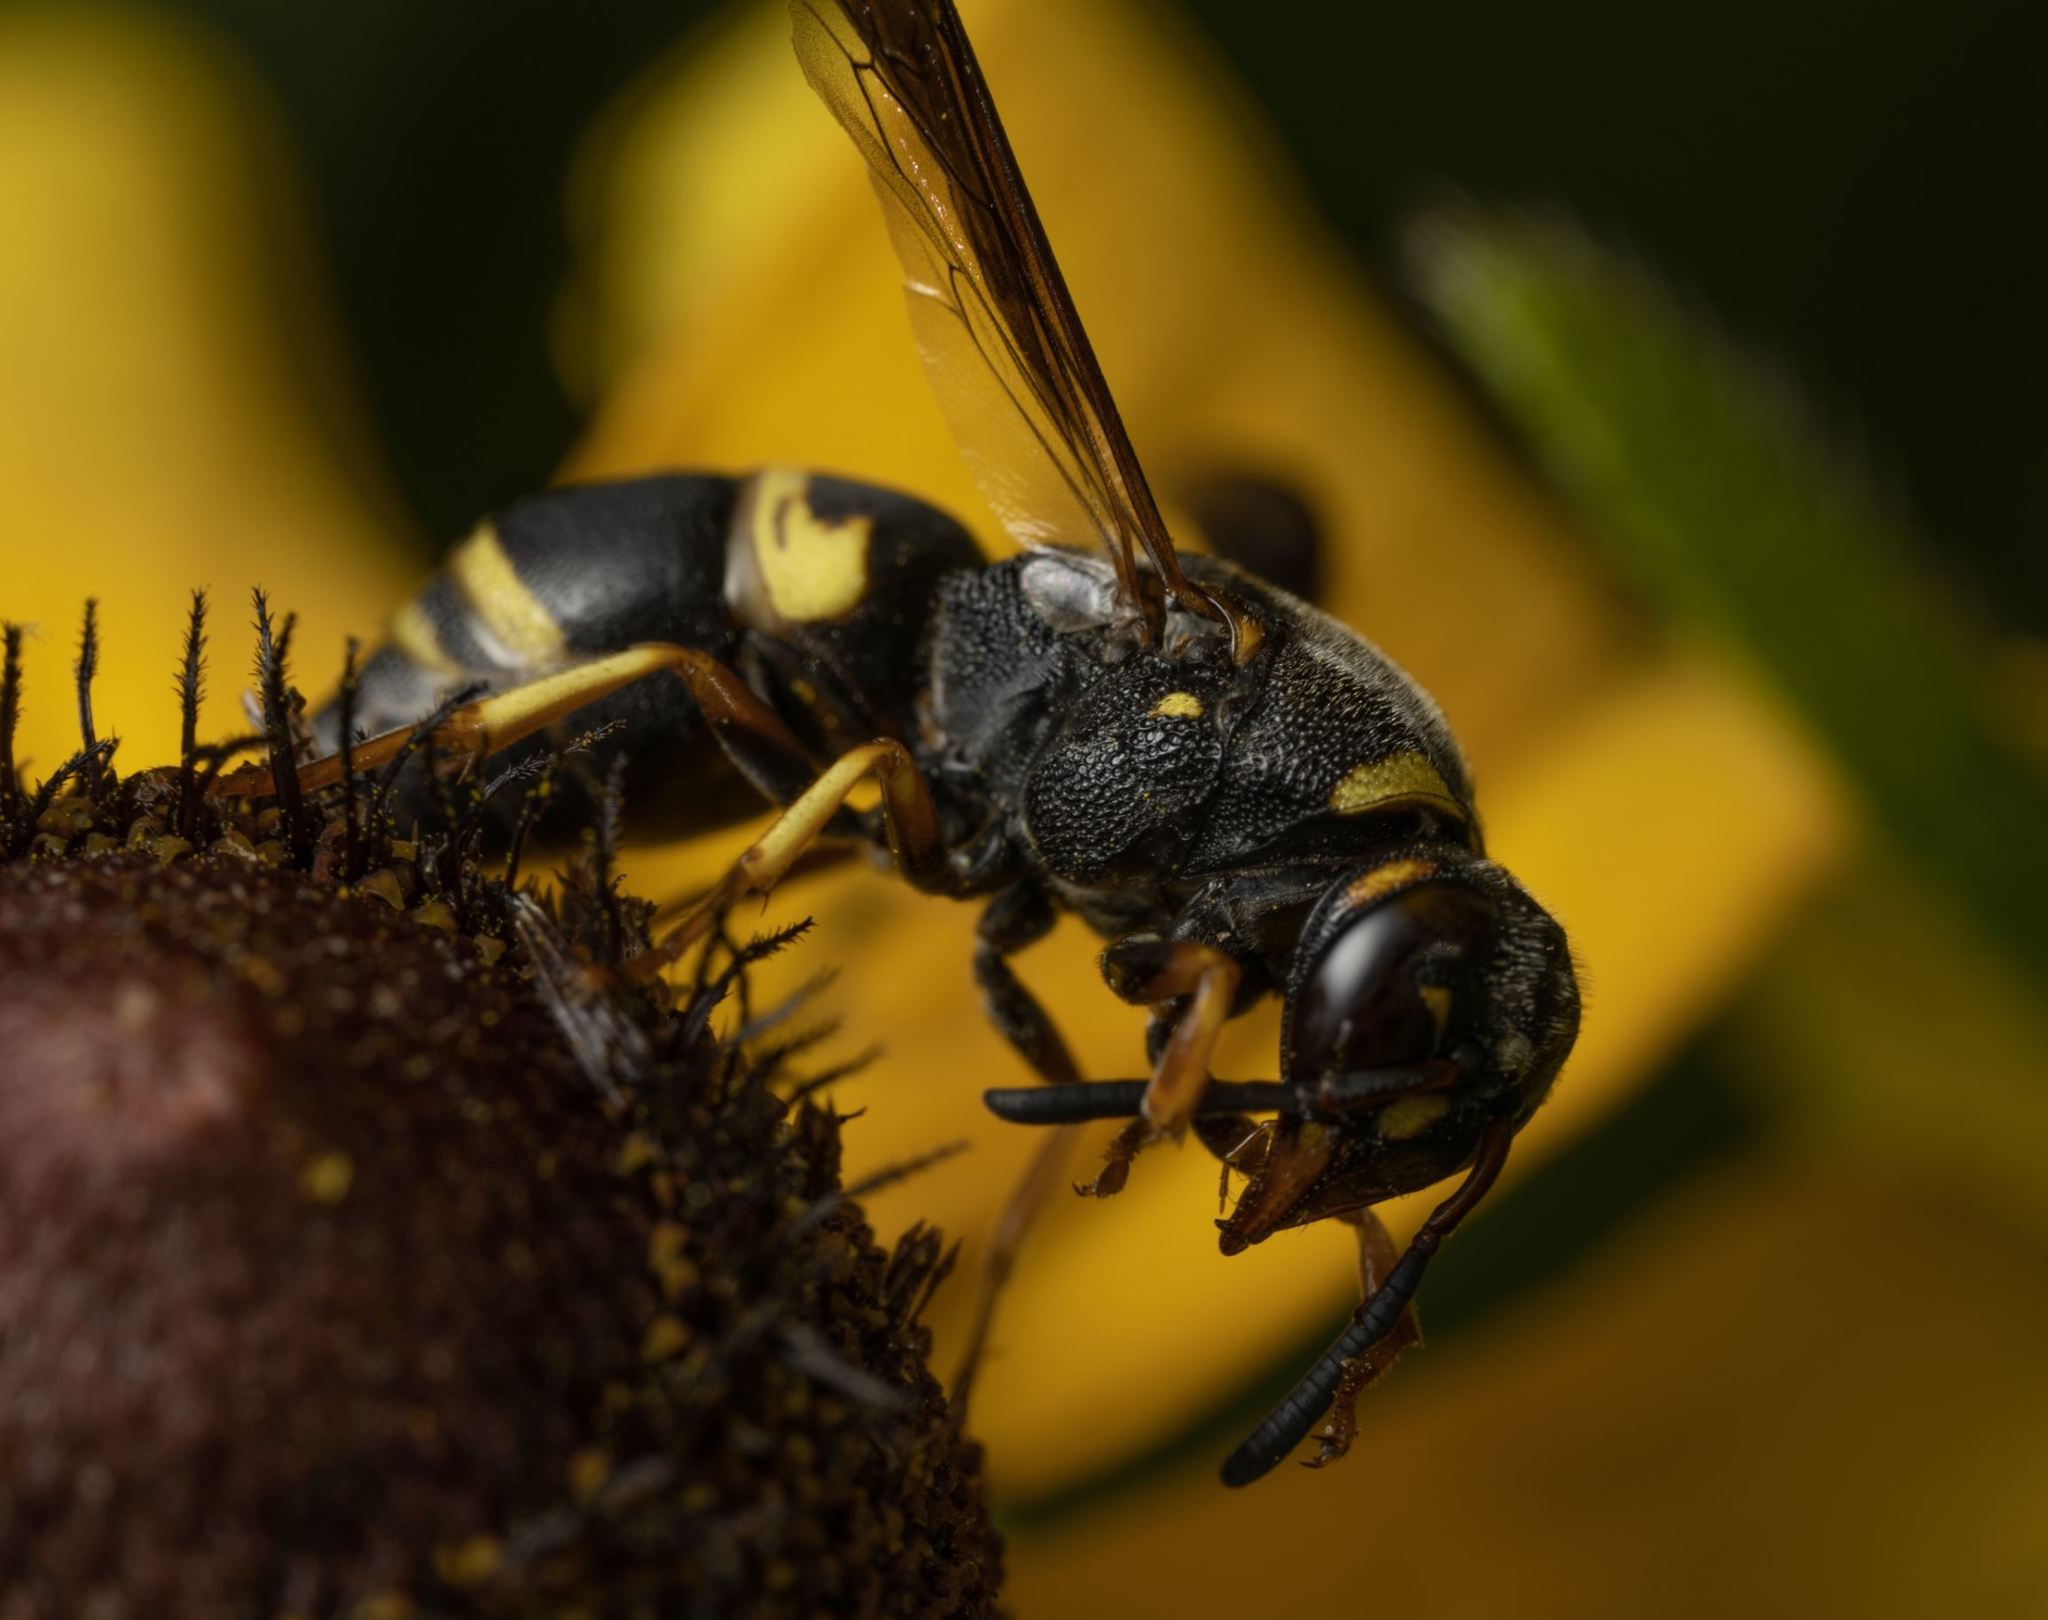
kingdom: Animalia
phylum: Arthropoda
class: Insecta
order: Hymenoptera
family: Eumenidae
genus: Euodynerus
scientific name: Euodynerus hidalgo
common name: Wasp
